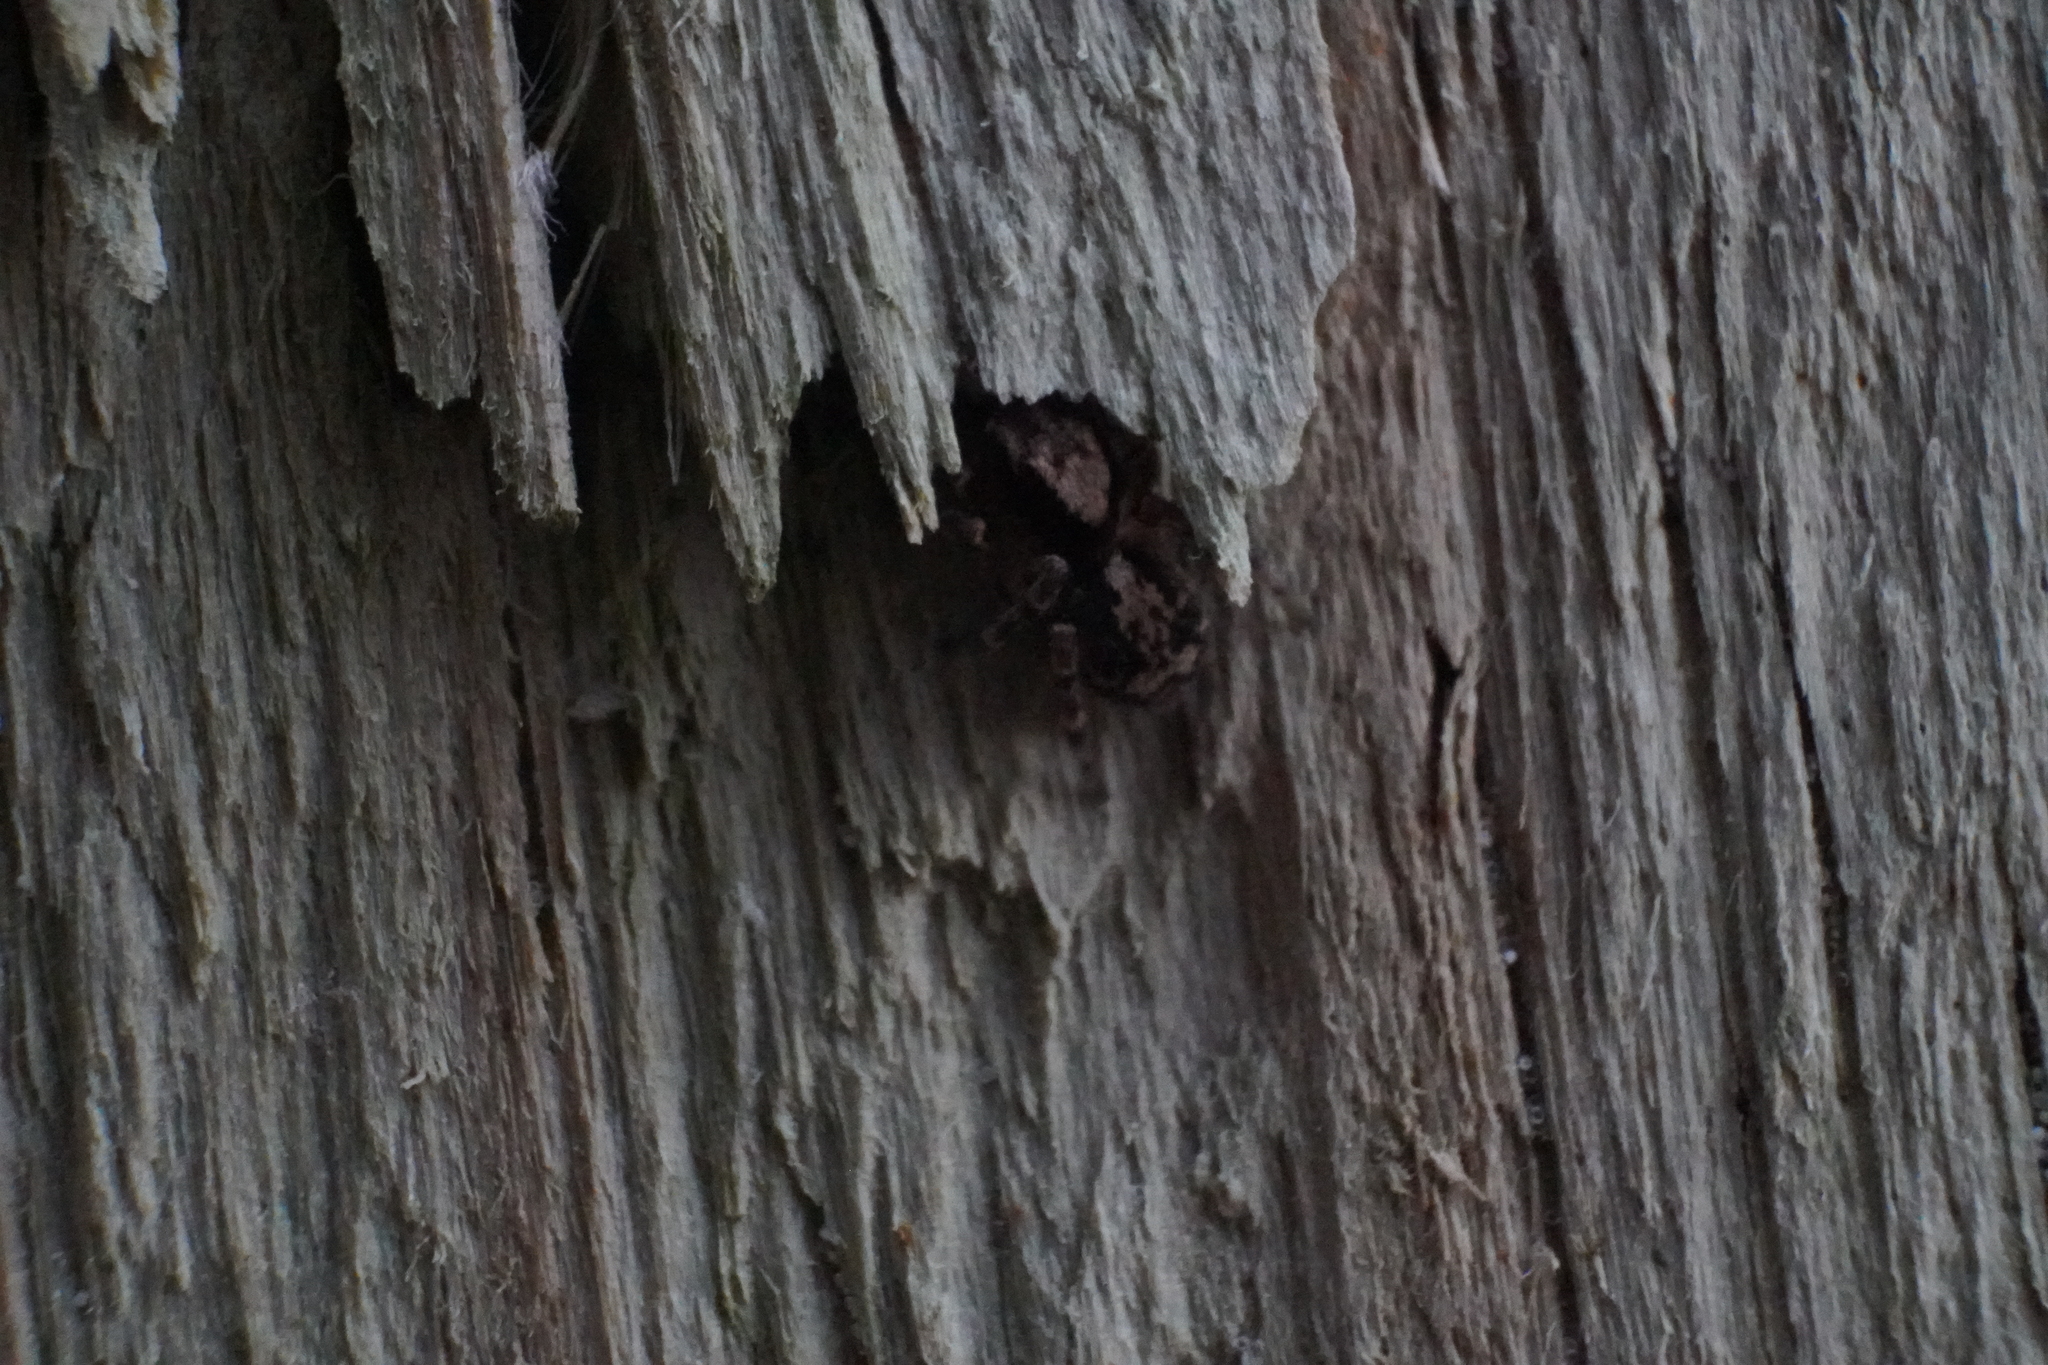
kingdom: Animalia
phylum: Arthropoda
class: Arachnida
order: Araneae
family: Salticidae
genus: Naphrys
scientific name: Naphrys pulex
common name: Flea jumping spider
